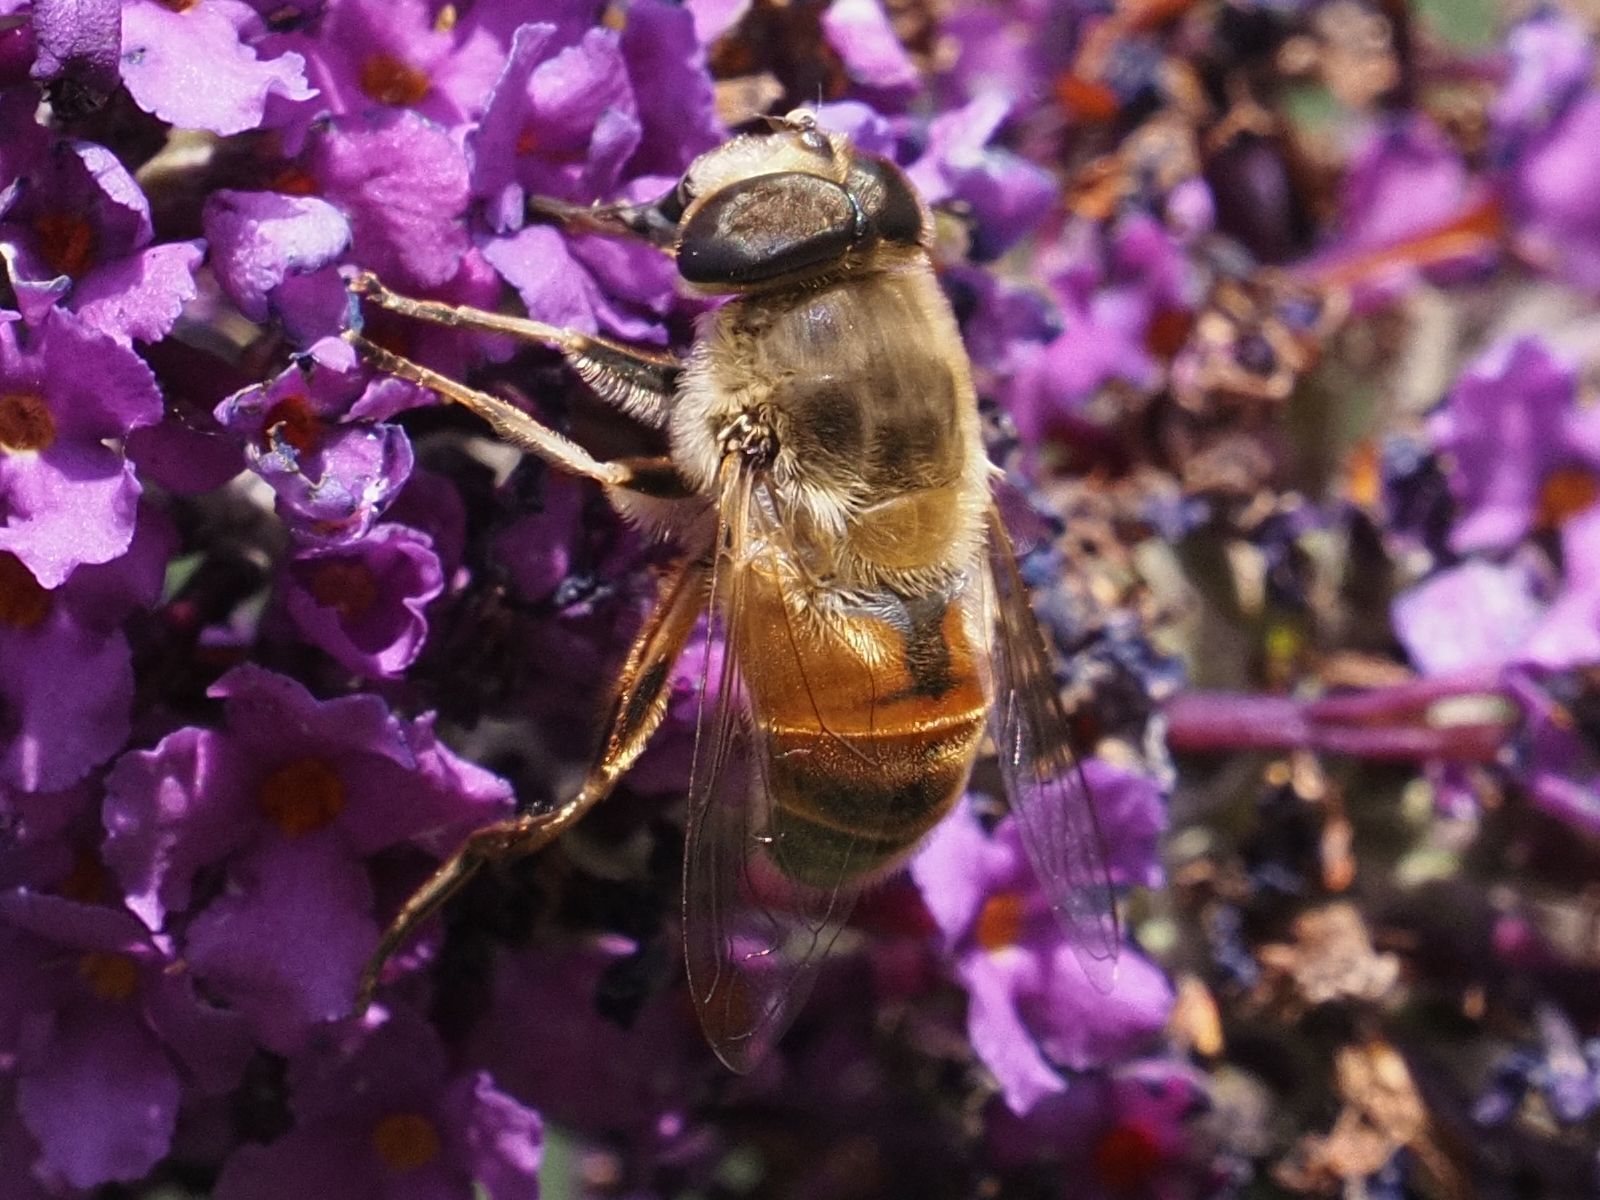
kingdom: Animalia
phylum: Arthropoda
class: Insecta
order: Diptera
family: Syrphidae
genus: Eristalis
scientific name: Eristalis tenax
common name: Drone fly
